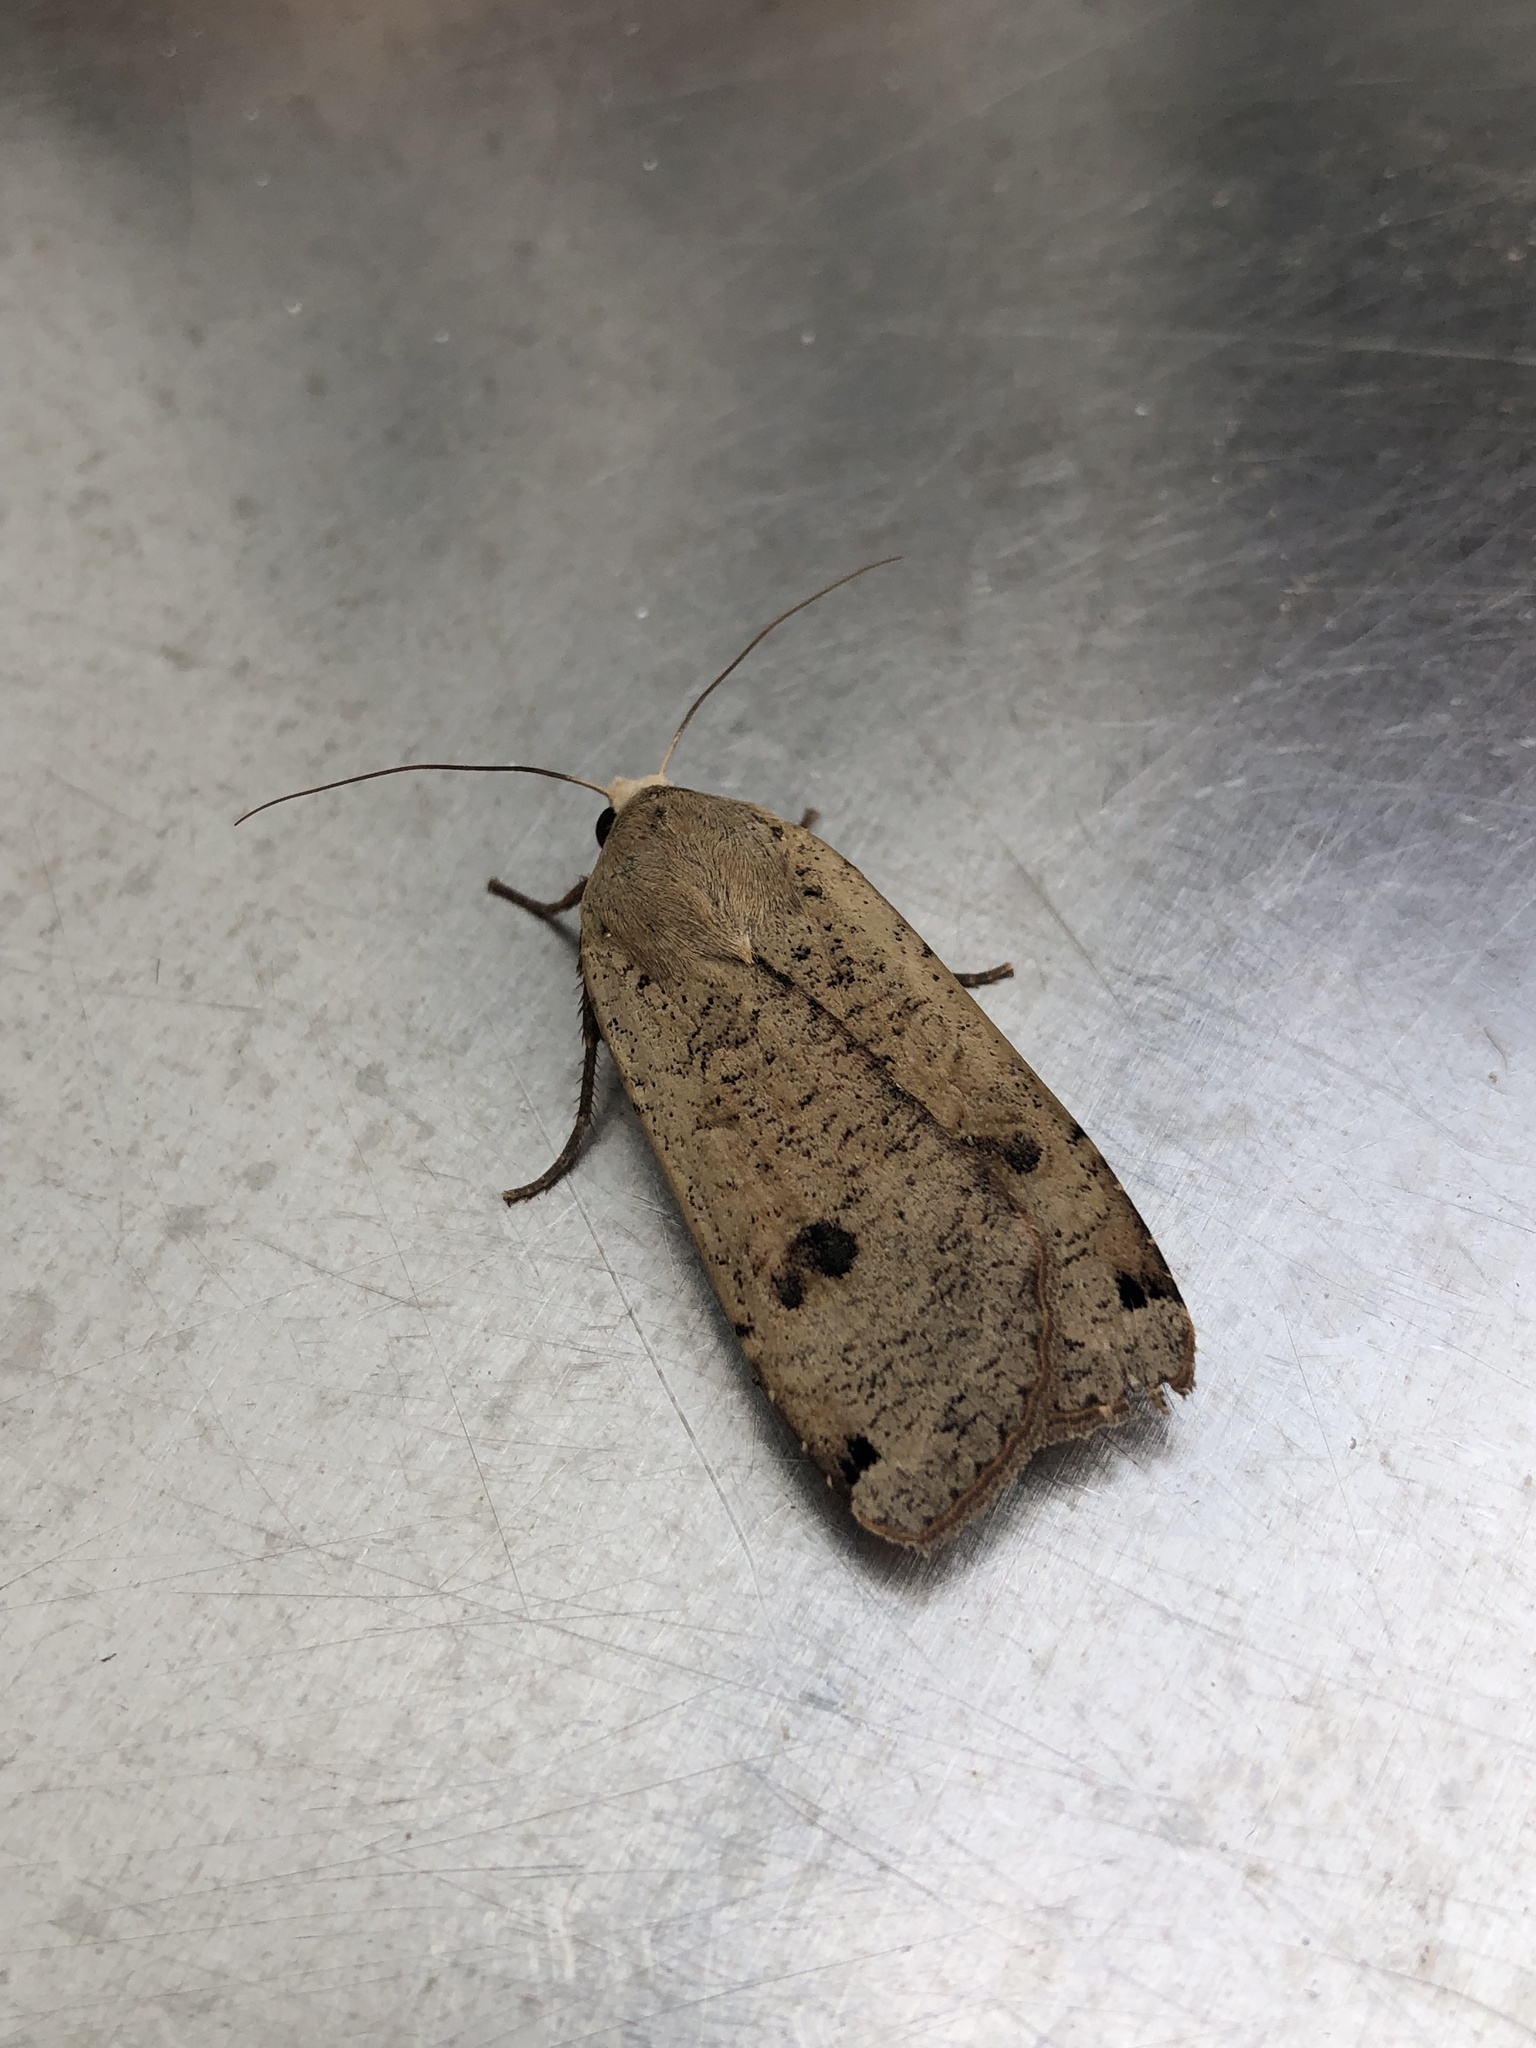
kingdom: Animalia
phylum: Arthropoda
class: Insecta
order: Lepidoptera
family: Noctuidae
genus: Noctua
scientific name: Noctua pronuba
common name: Large yellow underwing
